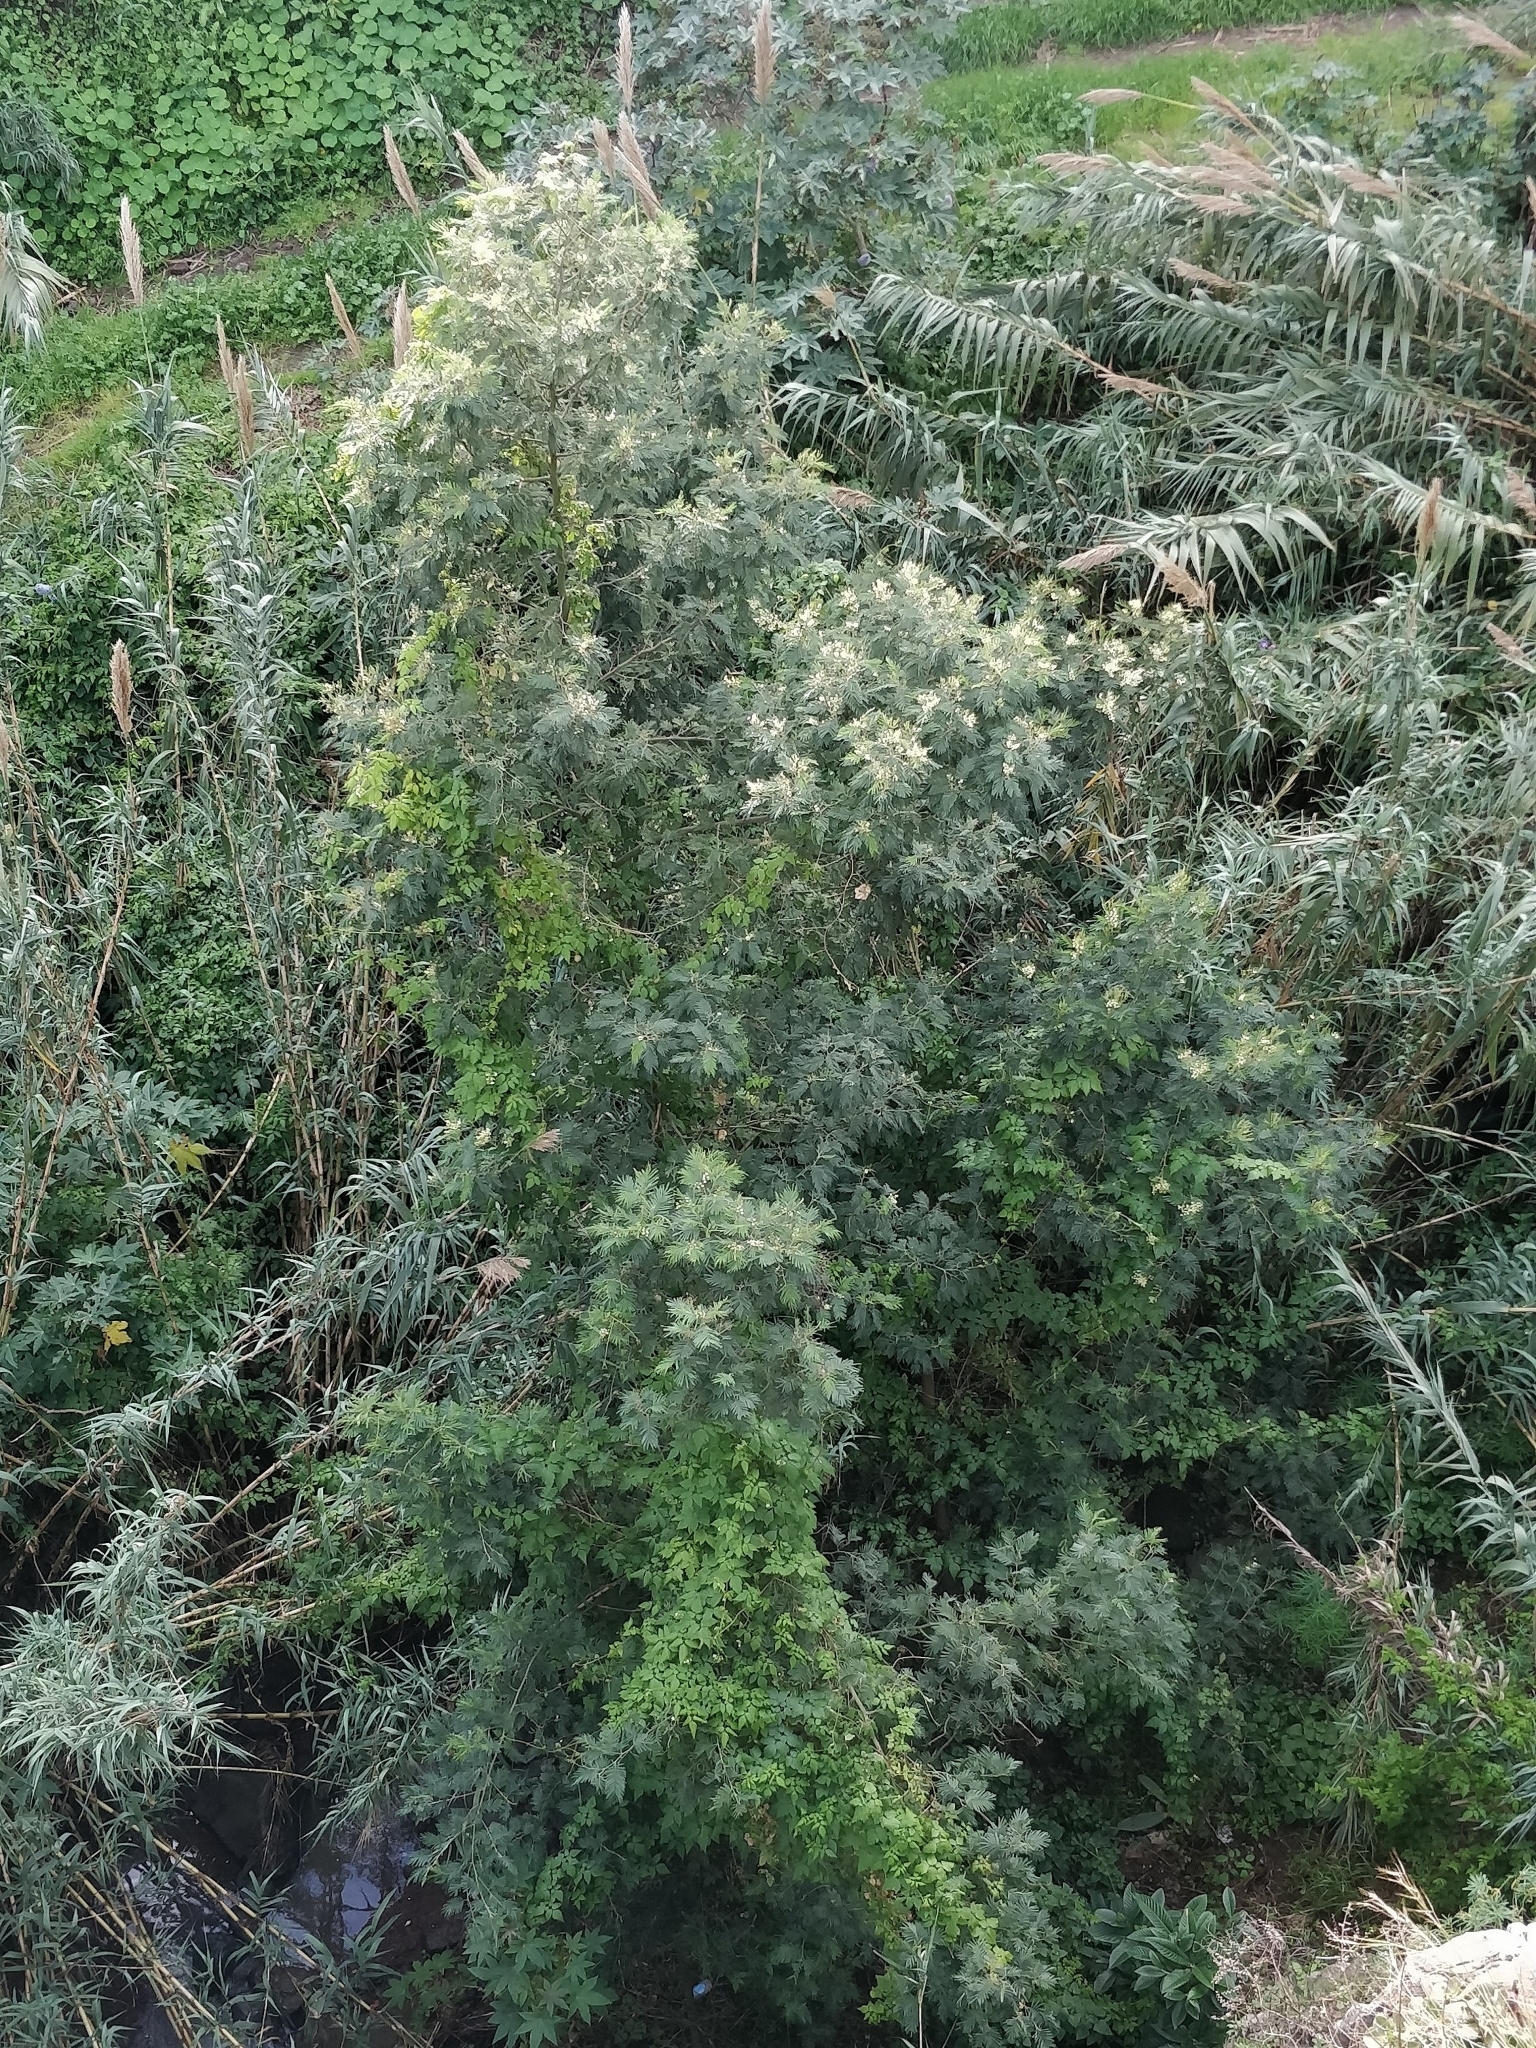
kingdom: Plantae
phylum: Tracheophyta
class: Magnoliopsida
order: Fabales
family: Fabaceae
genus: Acacia
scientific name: Acacia mearnsii
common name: Black wattle
